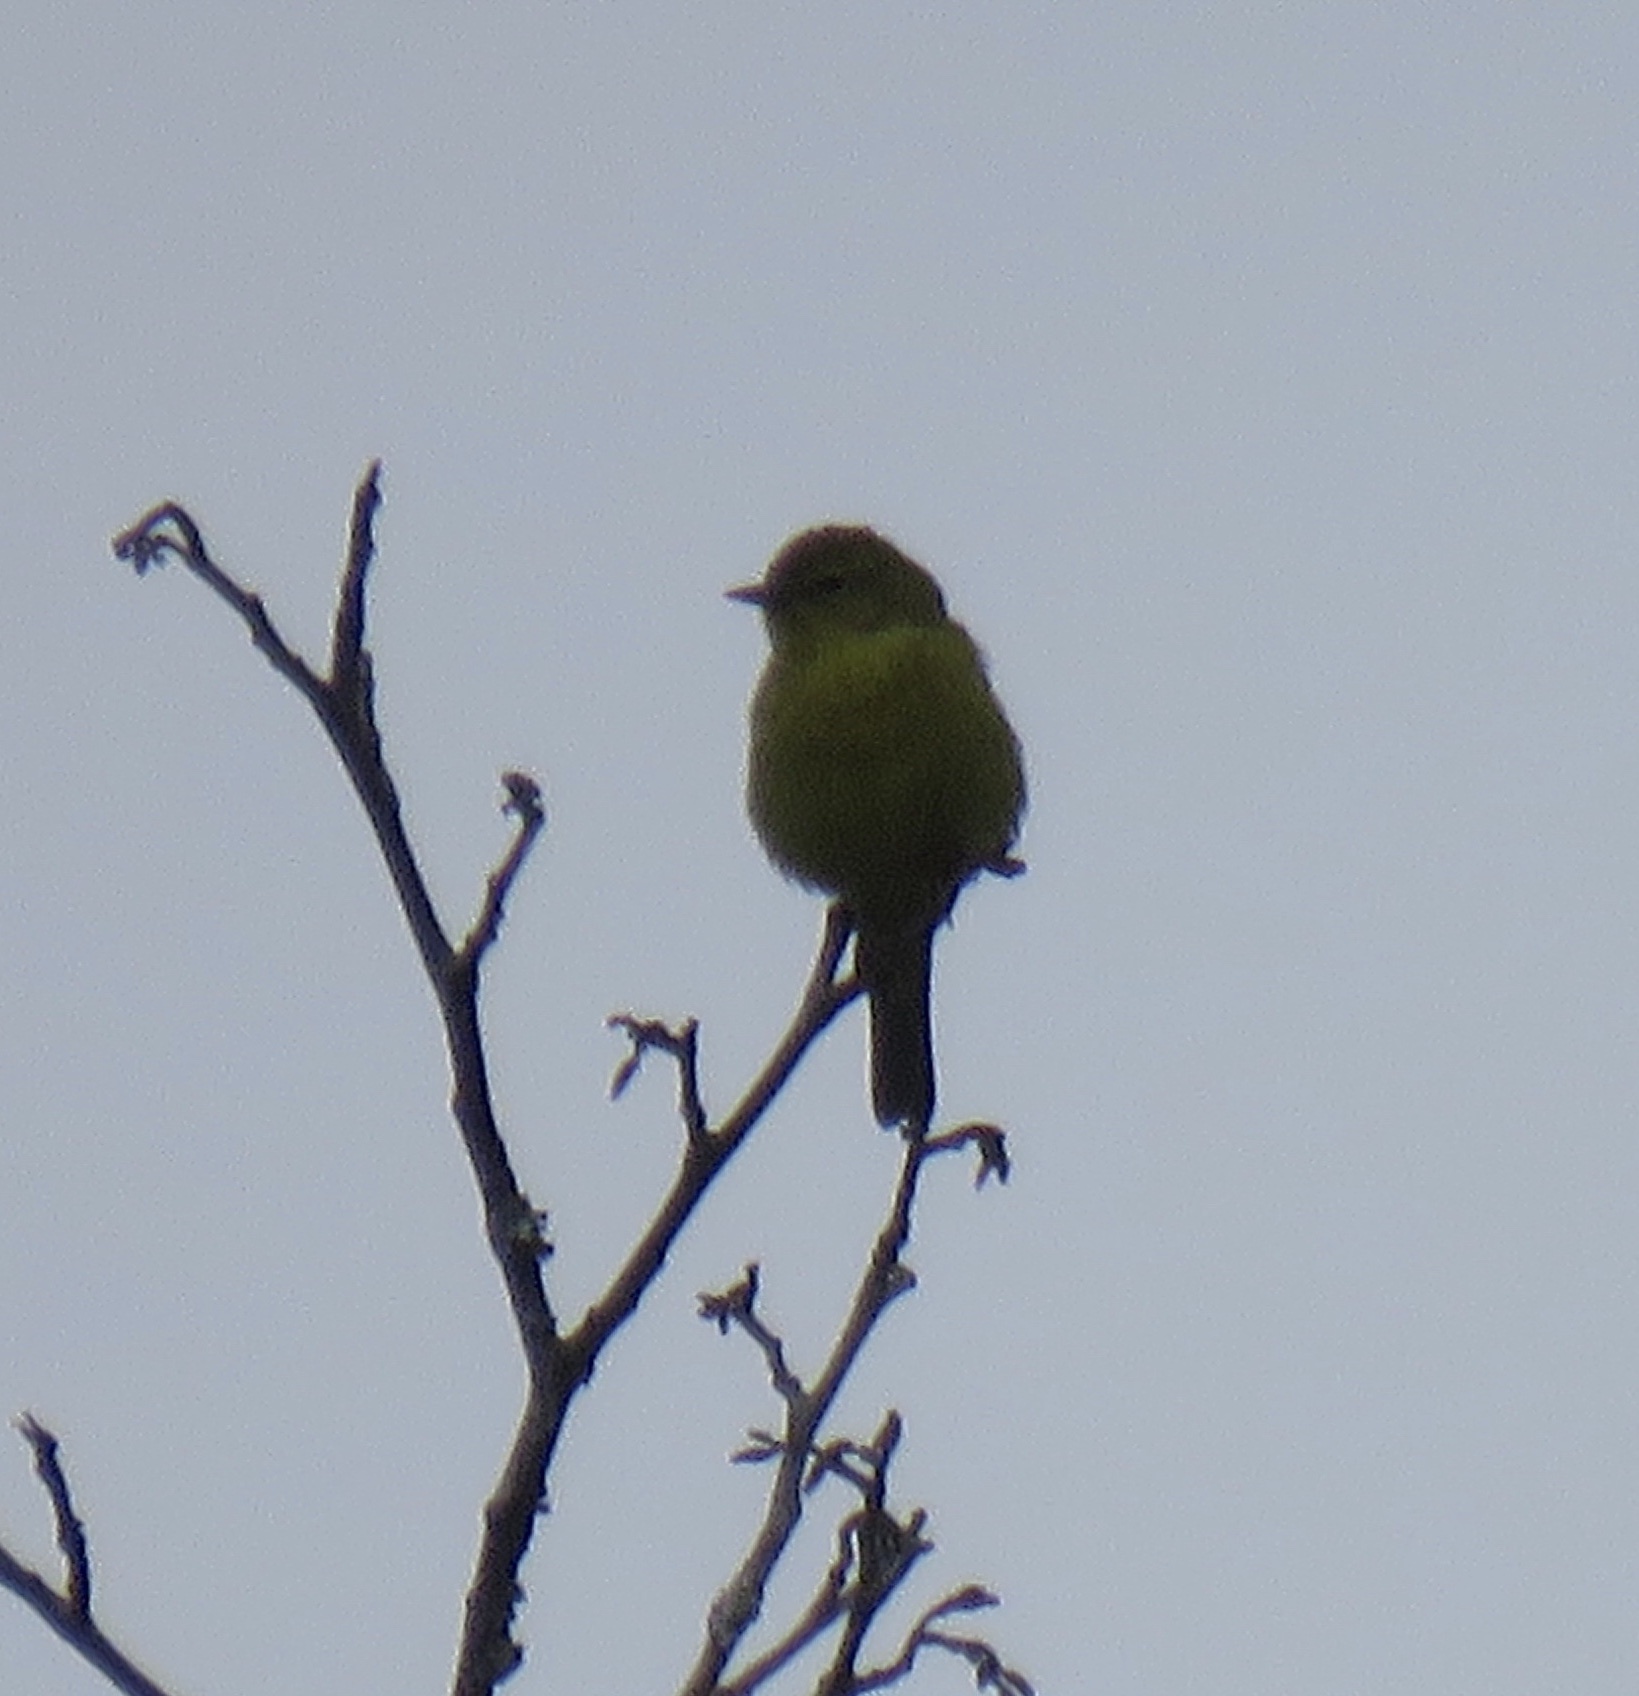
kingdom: Animalia
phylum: Chordata
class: Aves
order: Passeriformes
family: Parulidae
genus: Leiothlypis
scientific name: Leiothlypis celata
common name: Orange-crowned warbler
